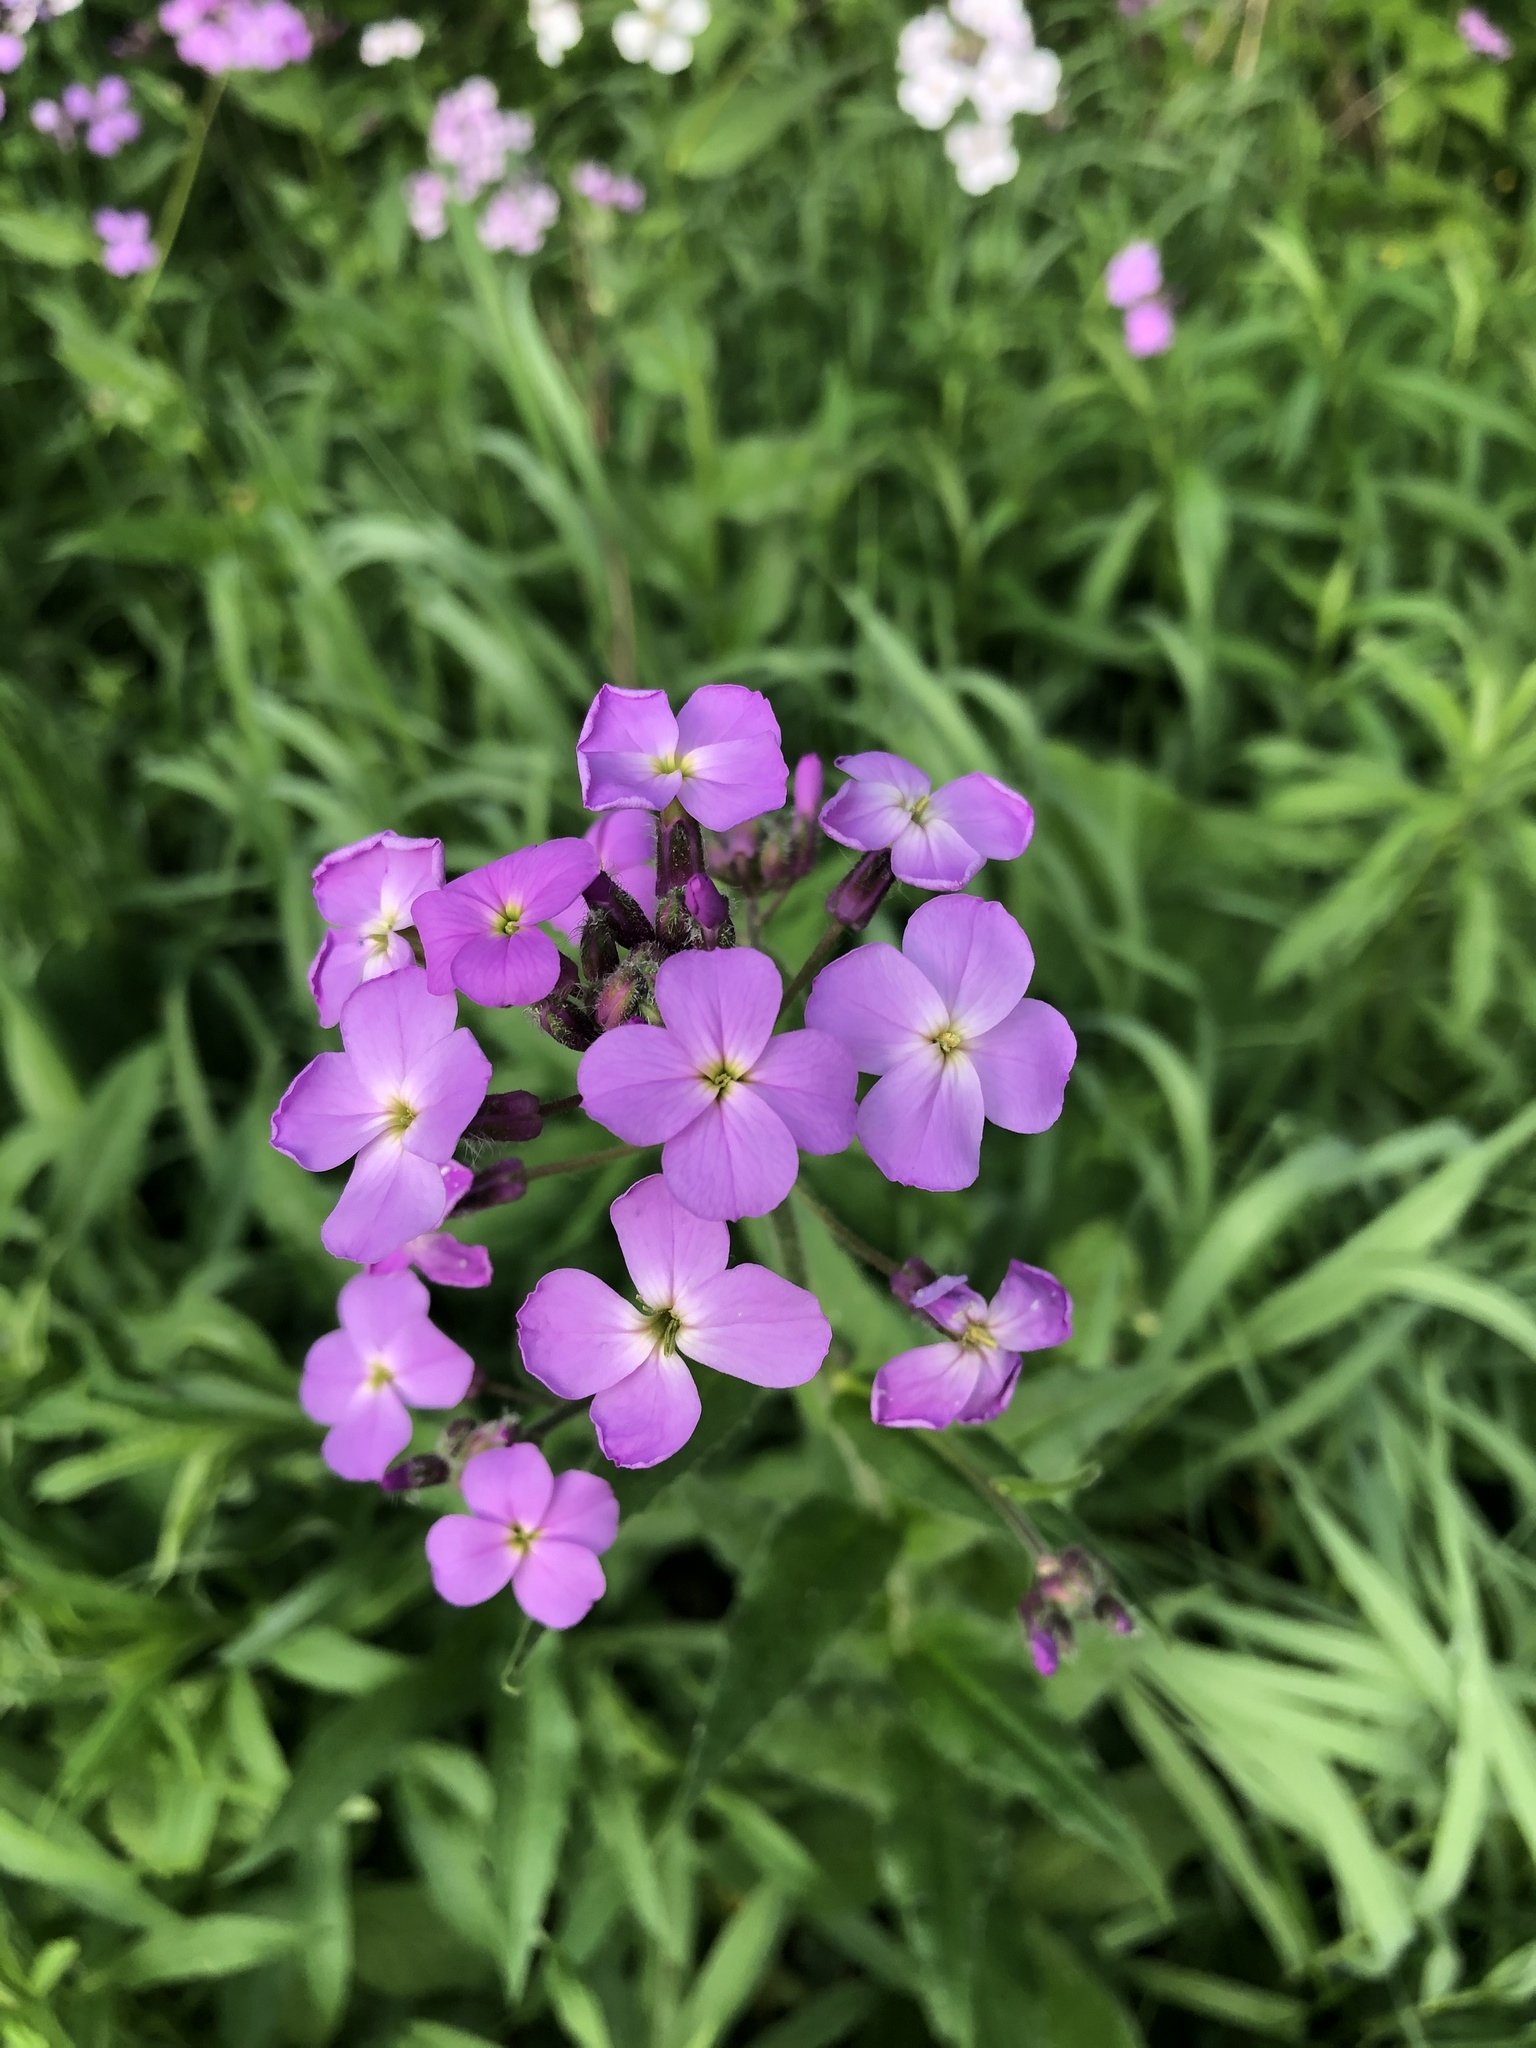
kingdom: Plantae
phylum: Tracheophyta
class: Magnoliopsida
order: Brassicales
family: Brassicaceae
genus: Hesperis
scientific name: Hesperis matronalis
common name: Dame's-violet
